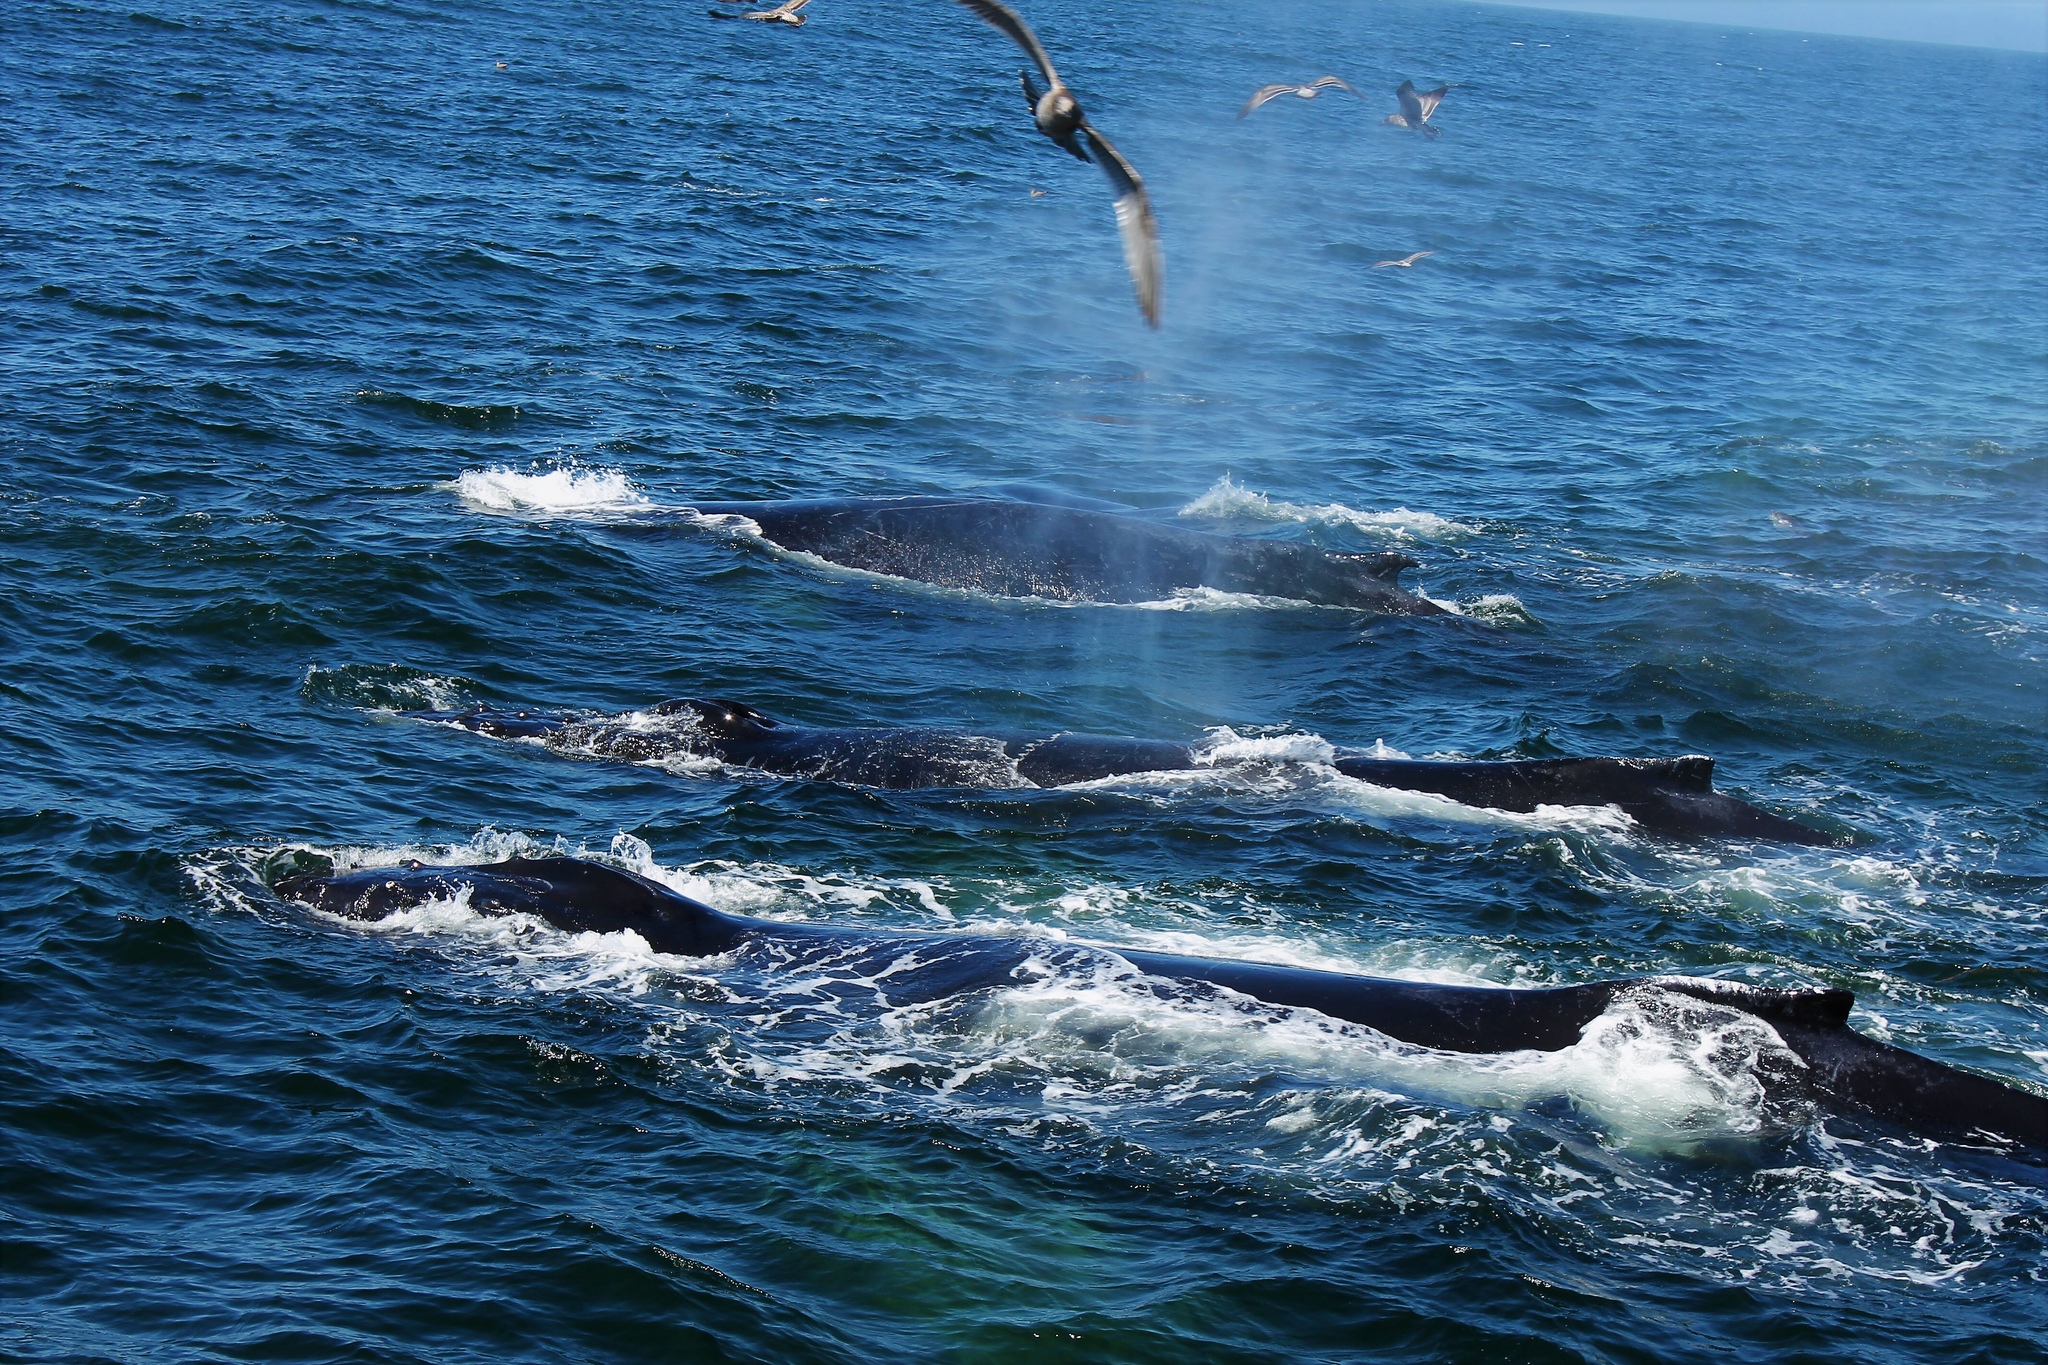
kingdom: Animalia
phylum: Chordata
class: Mammalia
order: Cetacea
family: Balaenopteridae
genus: Megaptera
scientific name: Megaptera novaeangliae
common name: Humpback whale
